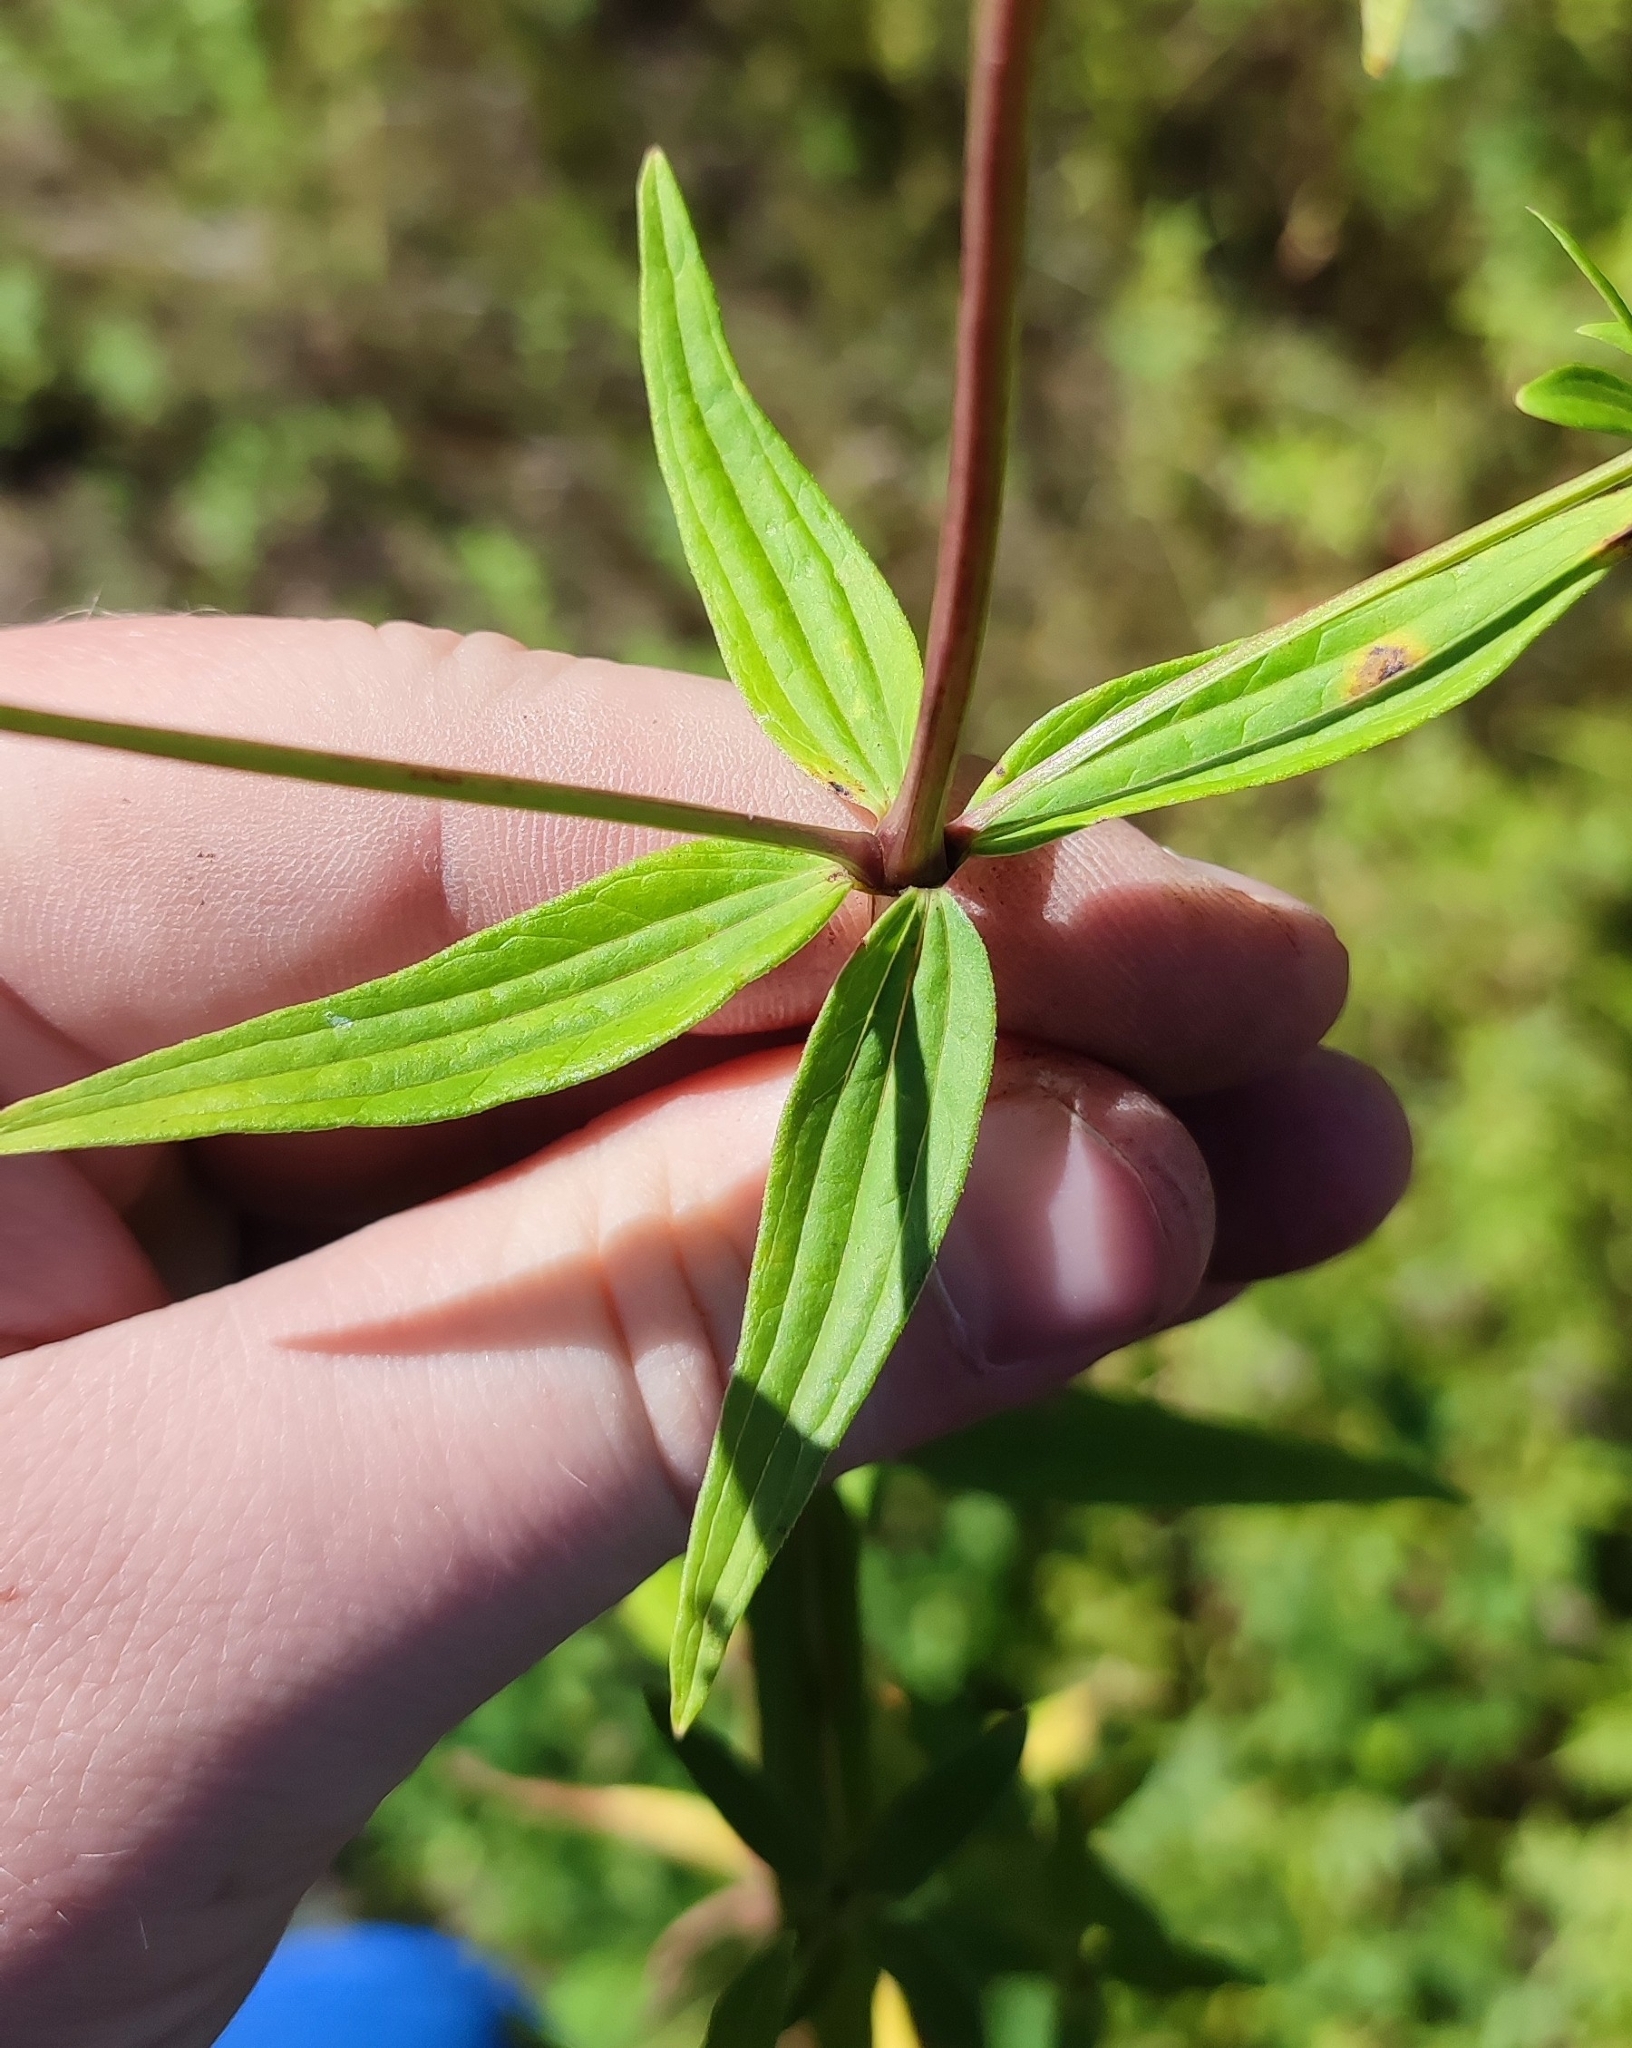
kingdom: Plantae
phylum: Tracheophyta
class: Magnoliopsida
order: Gentianales
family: Rubiaceae
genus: Galium
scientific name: Galium rubioides
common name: European bedstraw
